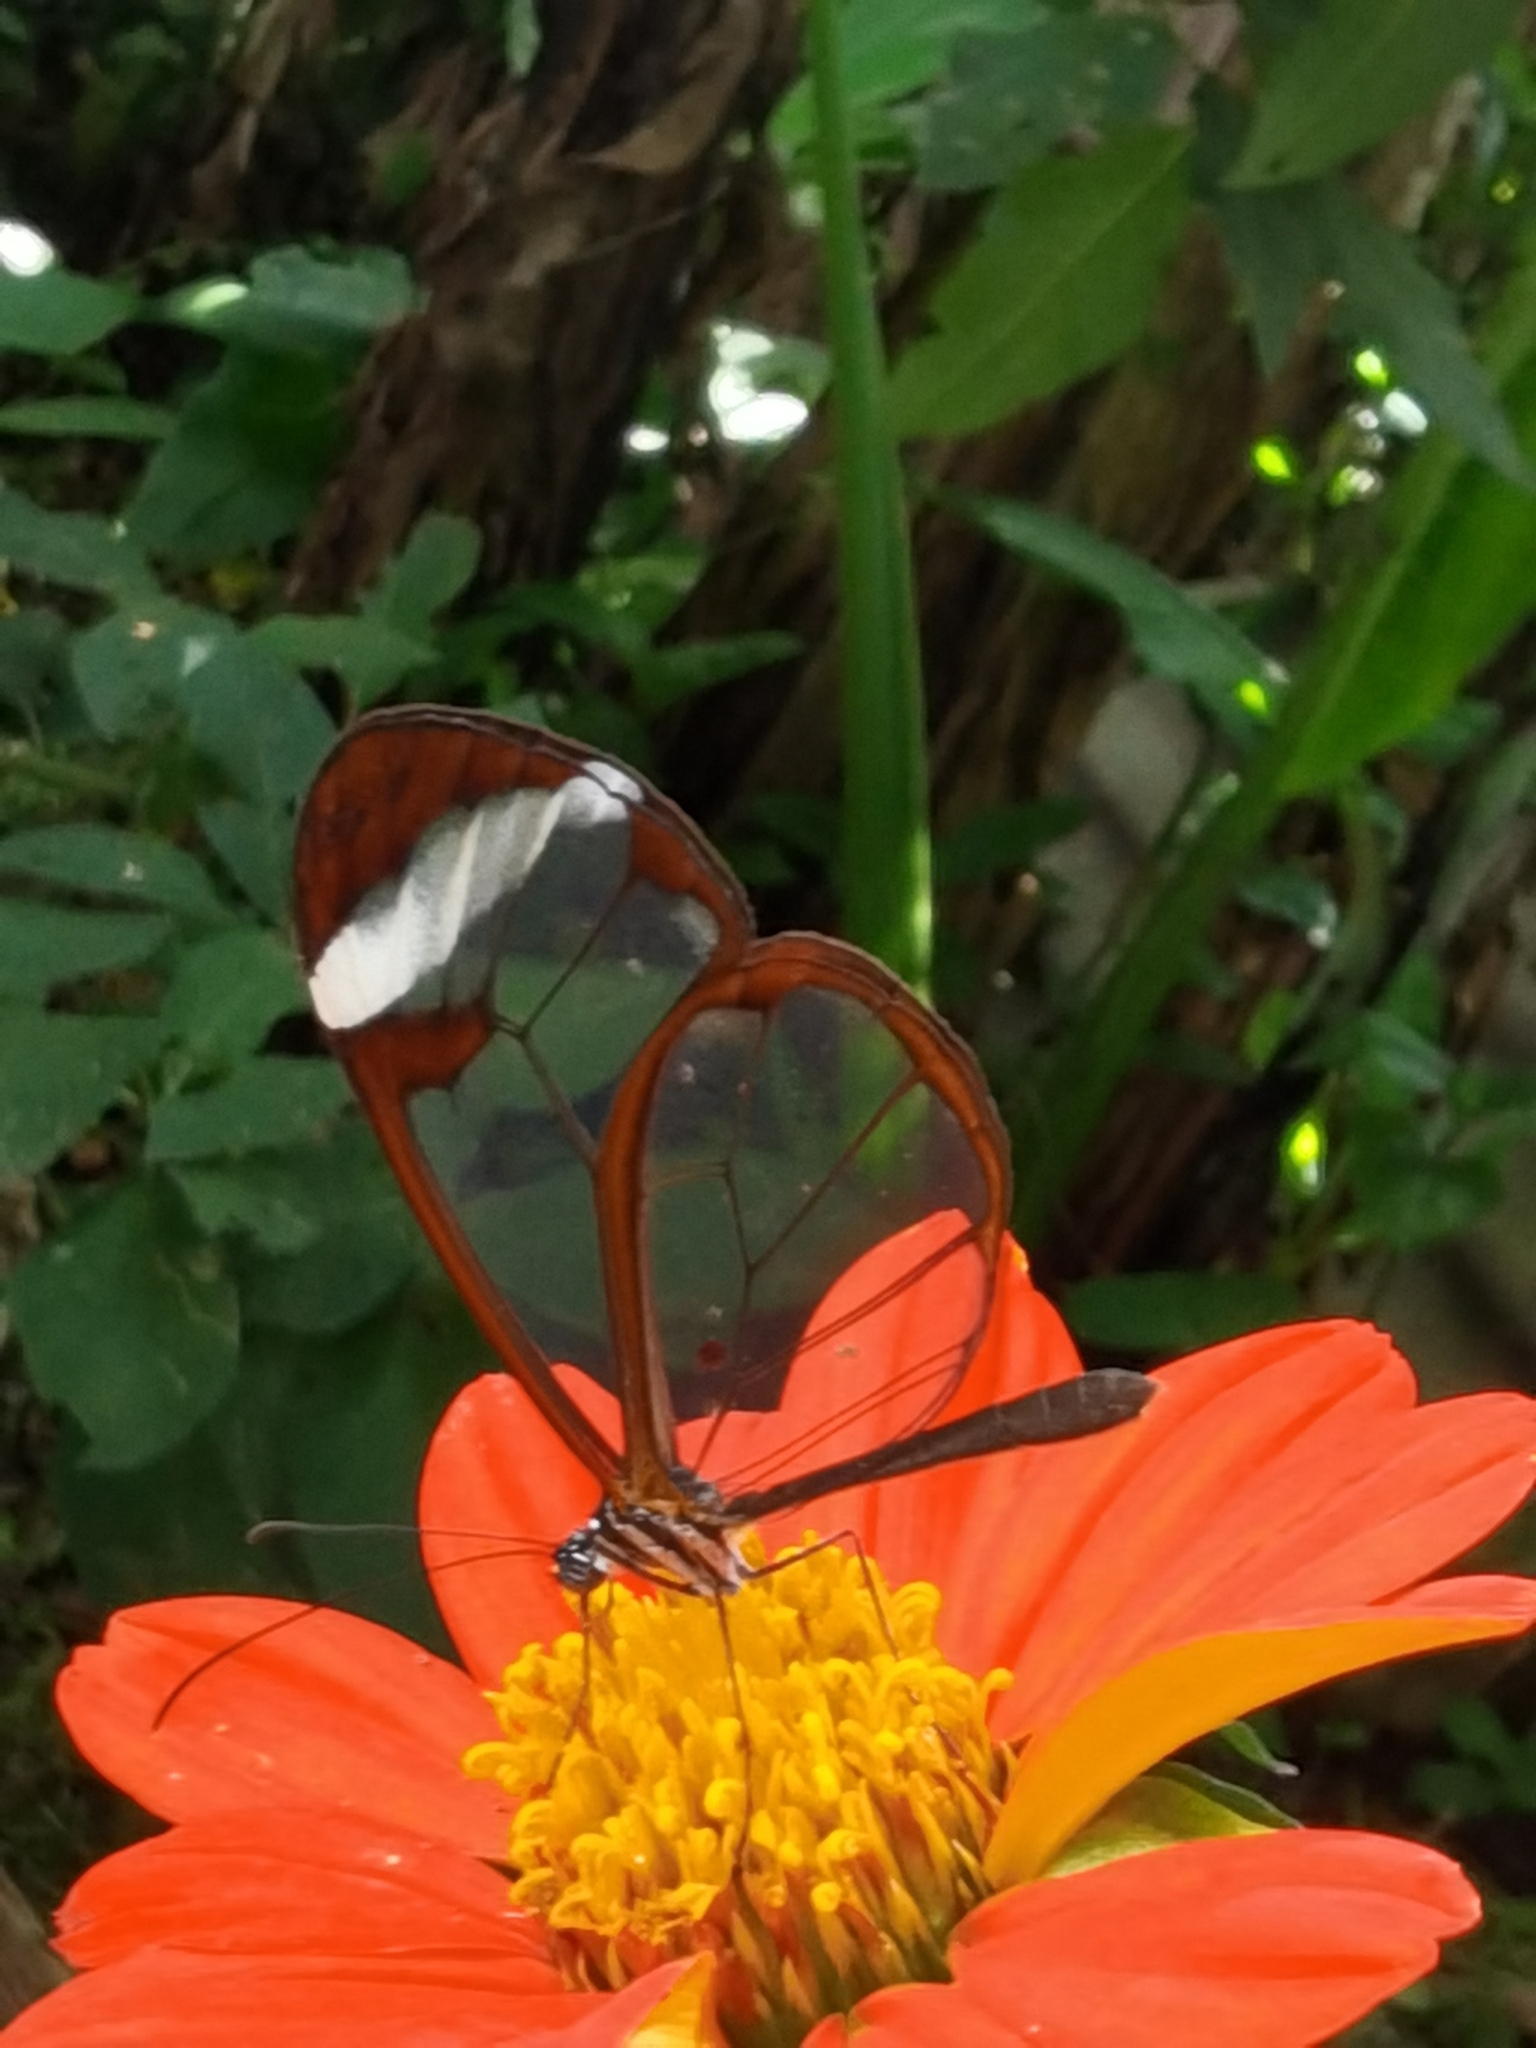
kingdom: Animalia
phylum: Arthropoda
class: Insecta
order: Lepidoptera
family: Nymphalidae
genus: Greta
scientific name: Greta morgane
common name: Thick-tipped greta
